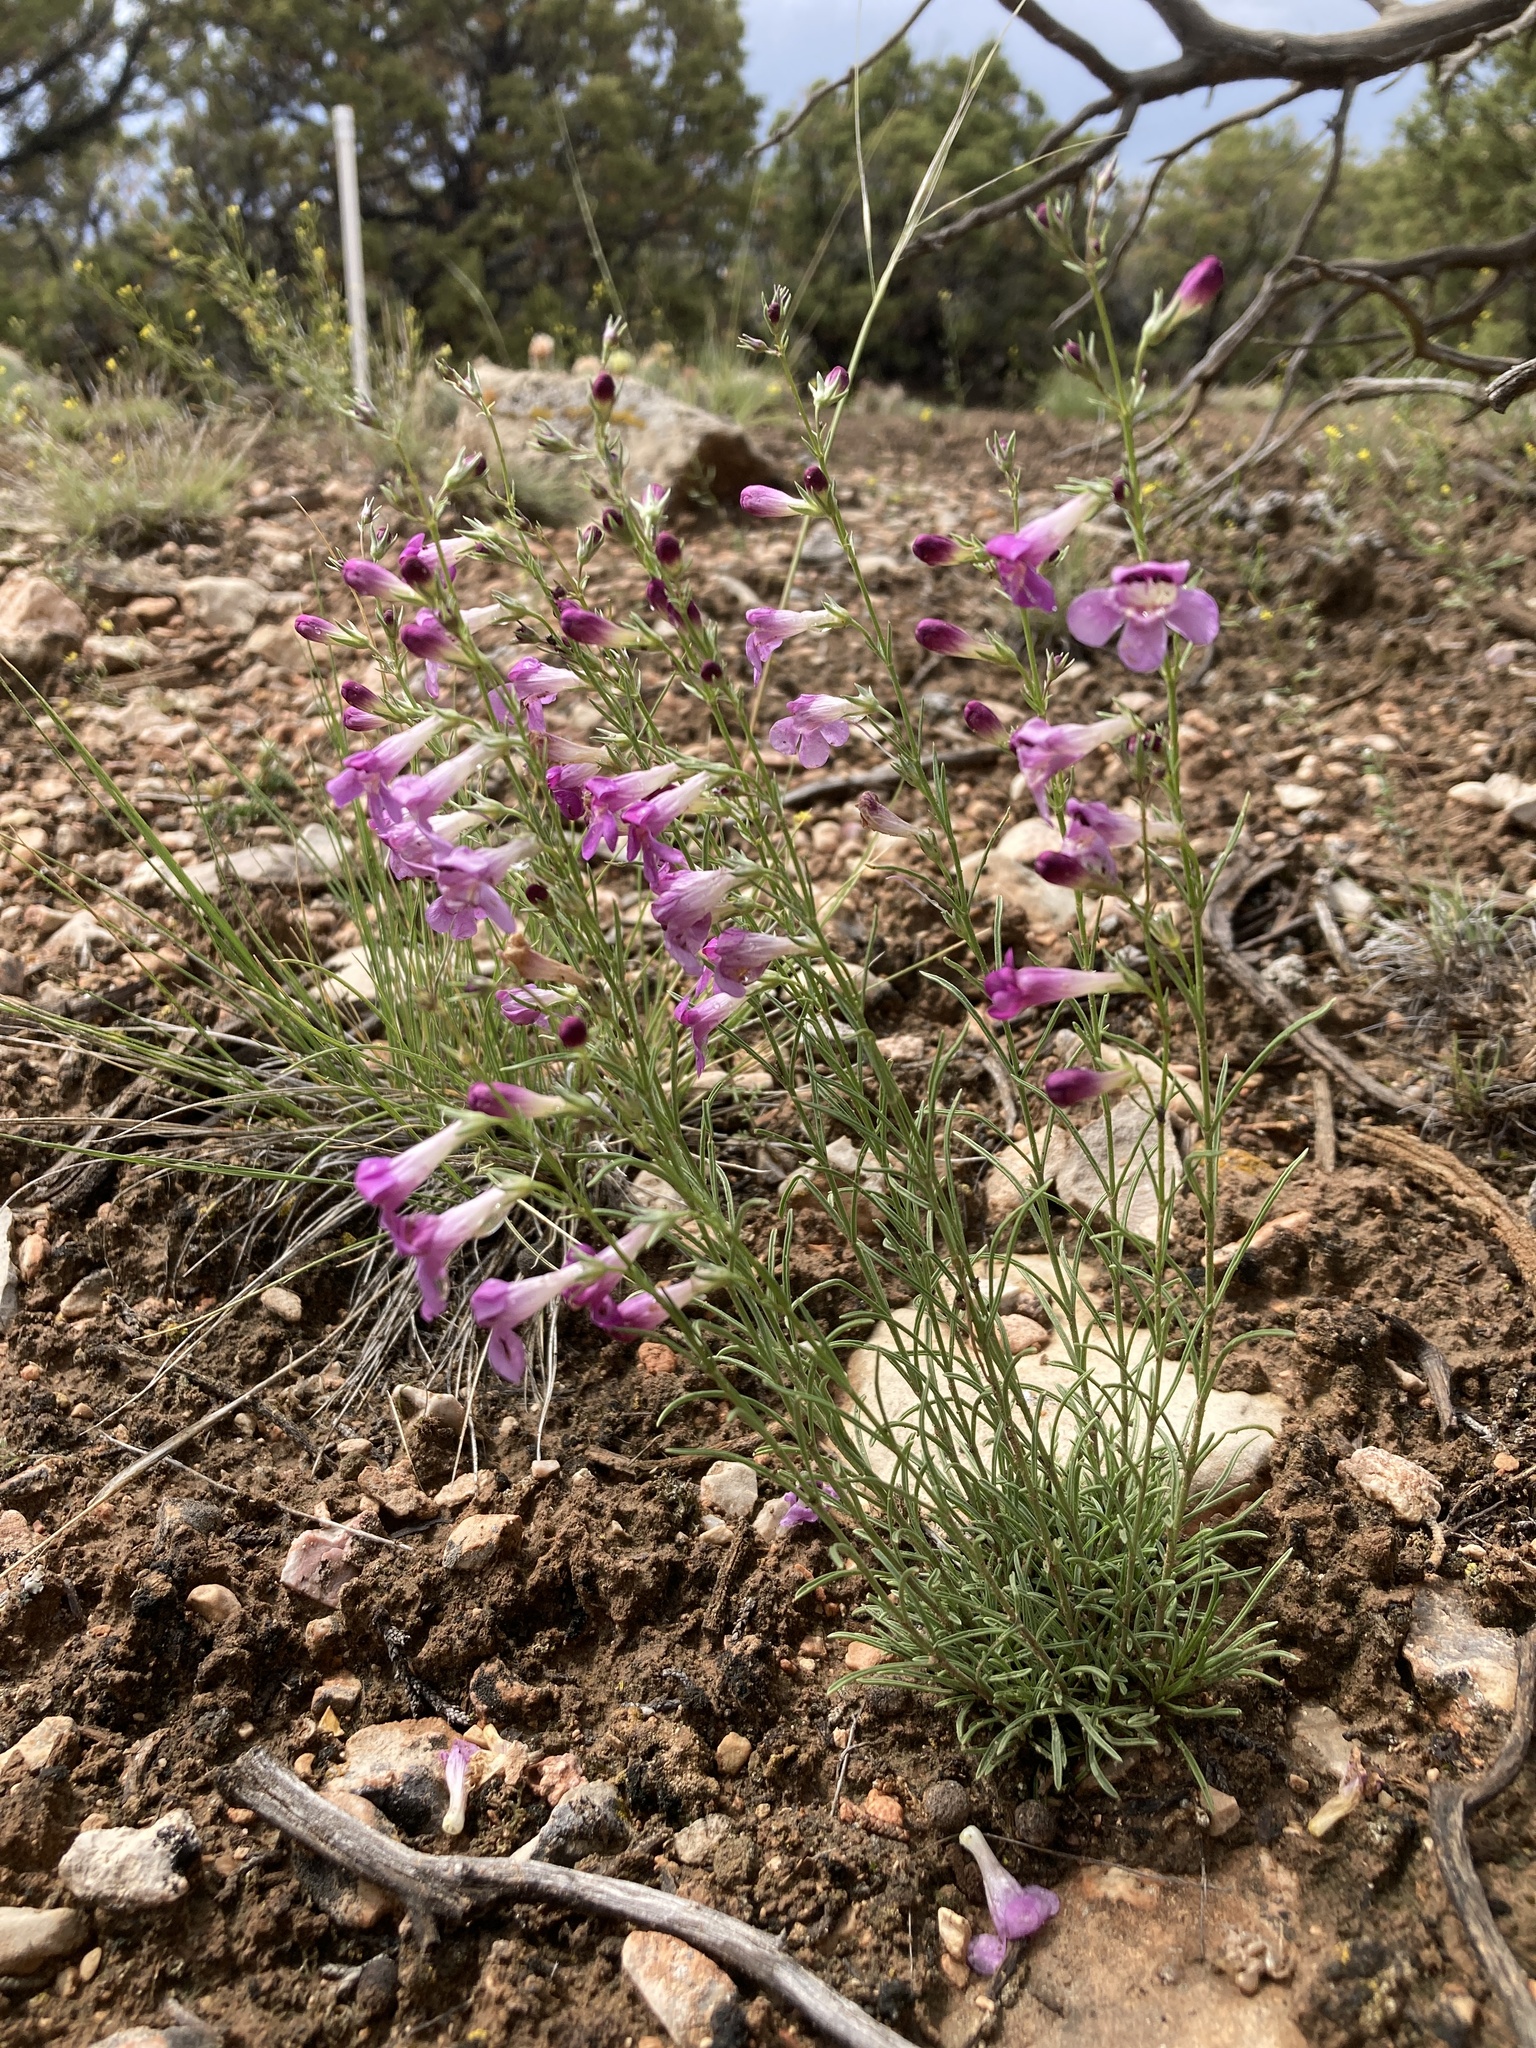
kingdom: Plantae
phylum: Tracheophyta
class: Magnoliopsida
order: Lamiales
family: Plantaginaceae
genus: Penstemon
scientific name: Penstemon laricifolius
